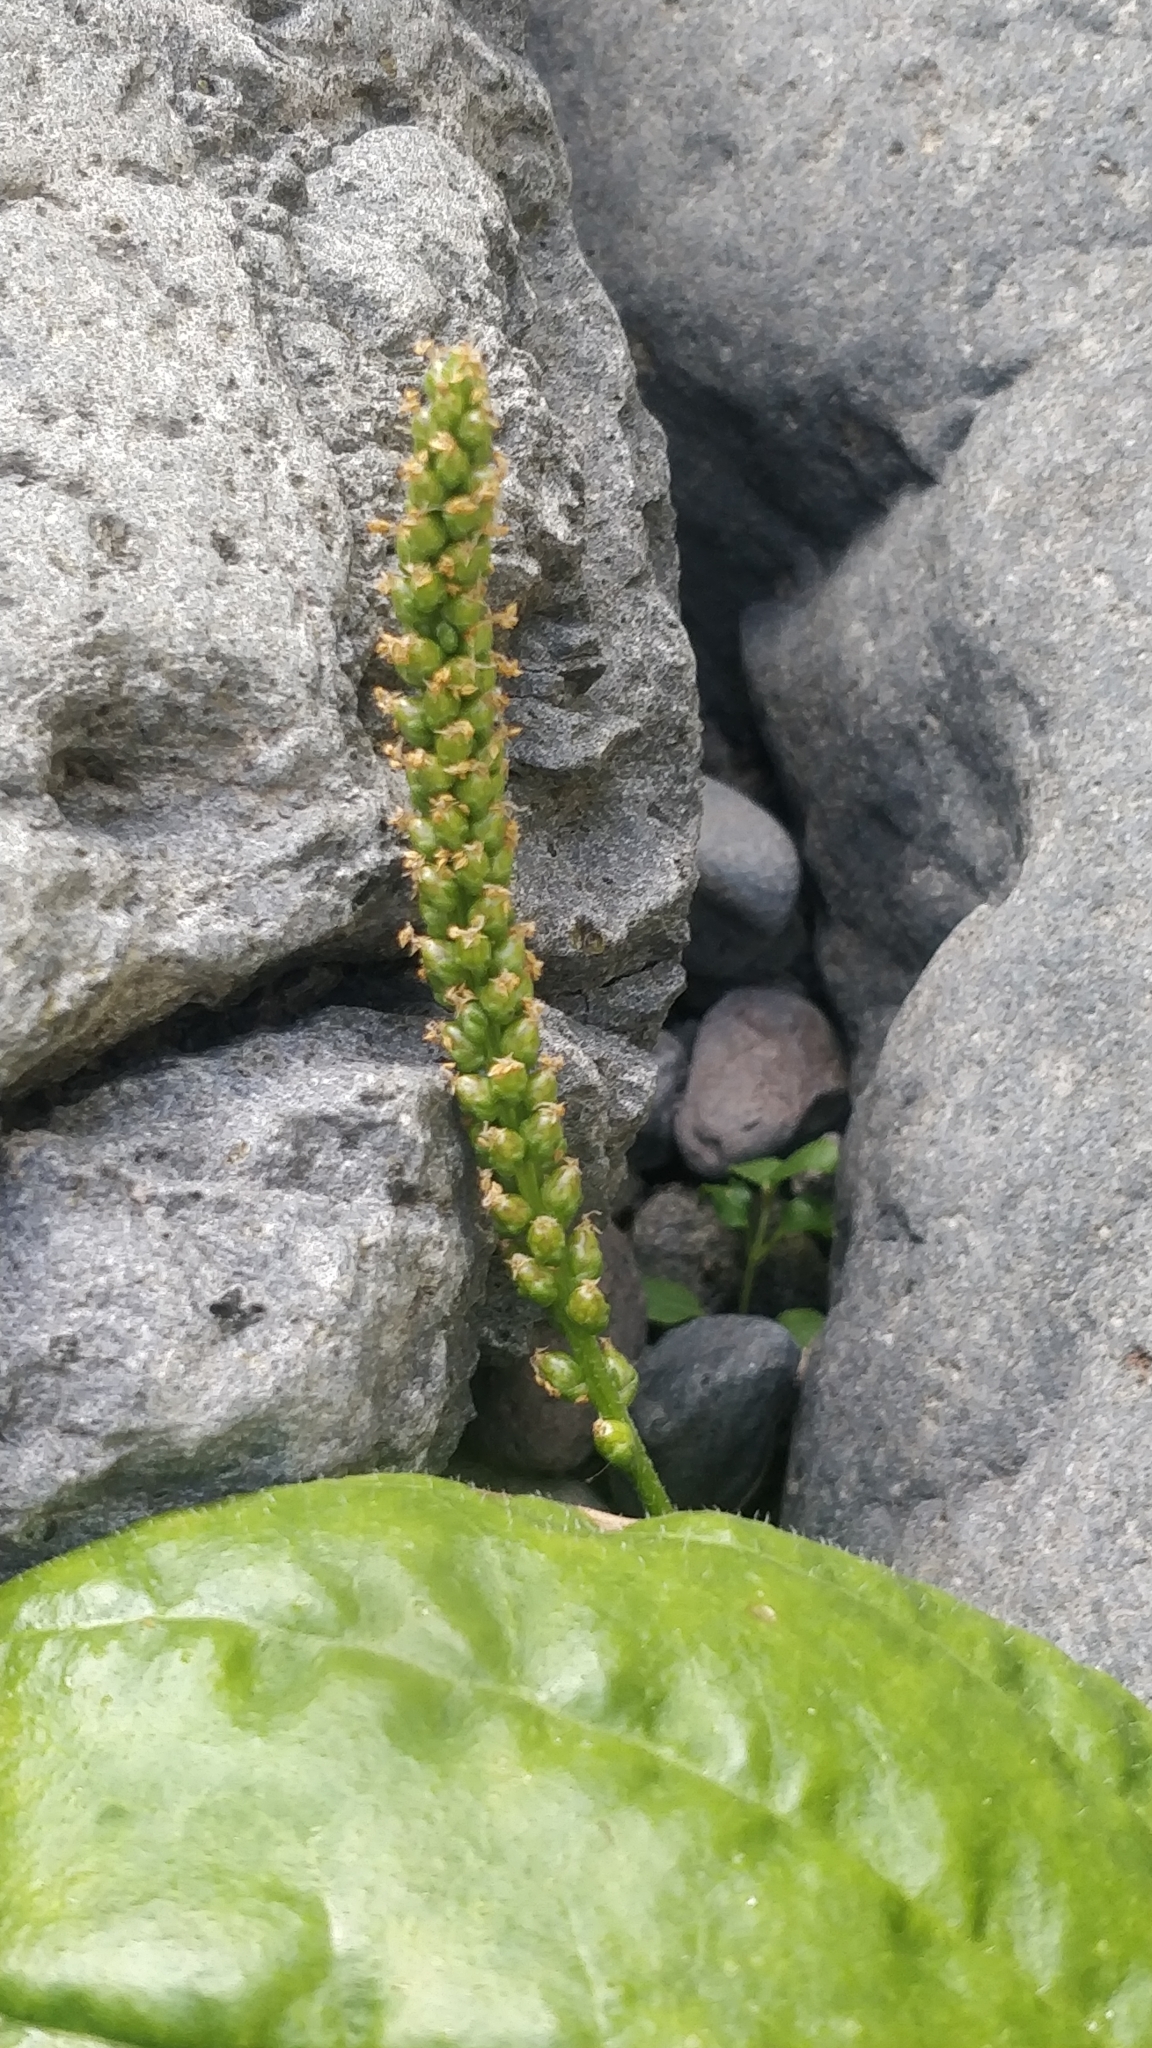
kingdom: Plantae
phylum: Tracheophyta
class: Magnoliopsida
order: Lamiales
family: Plantaginaceae
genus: Plantago
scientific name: Plantago major
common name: Common plantain
